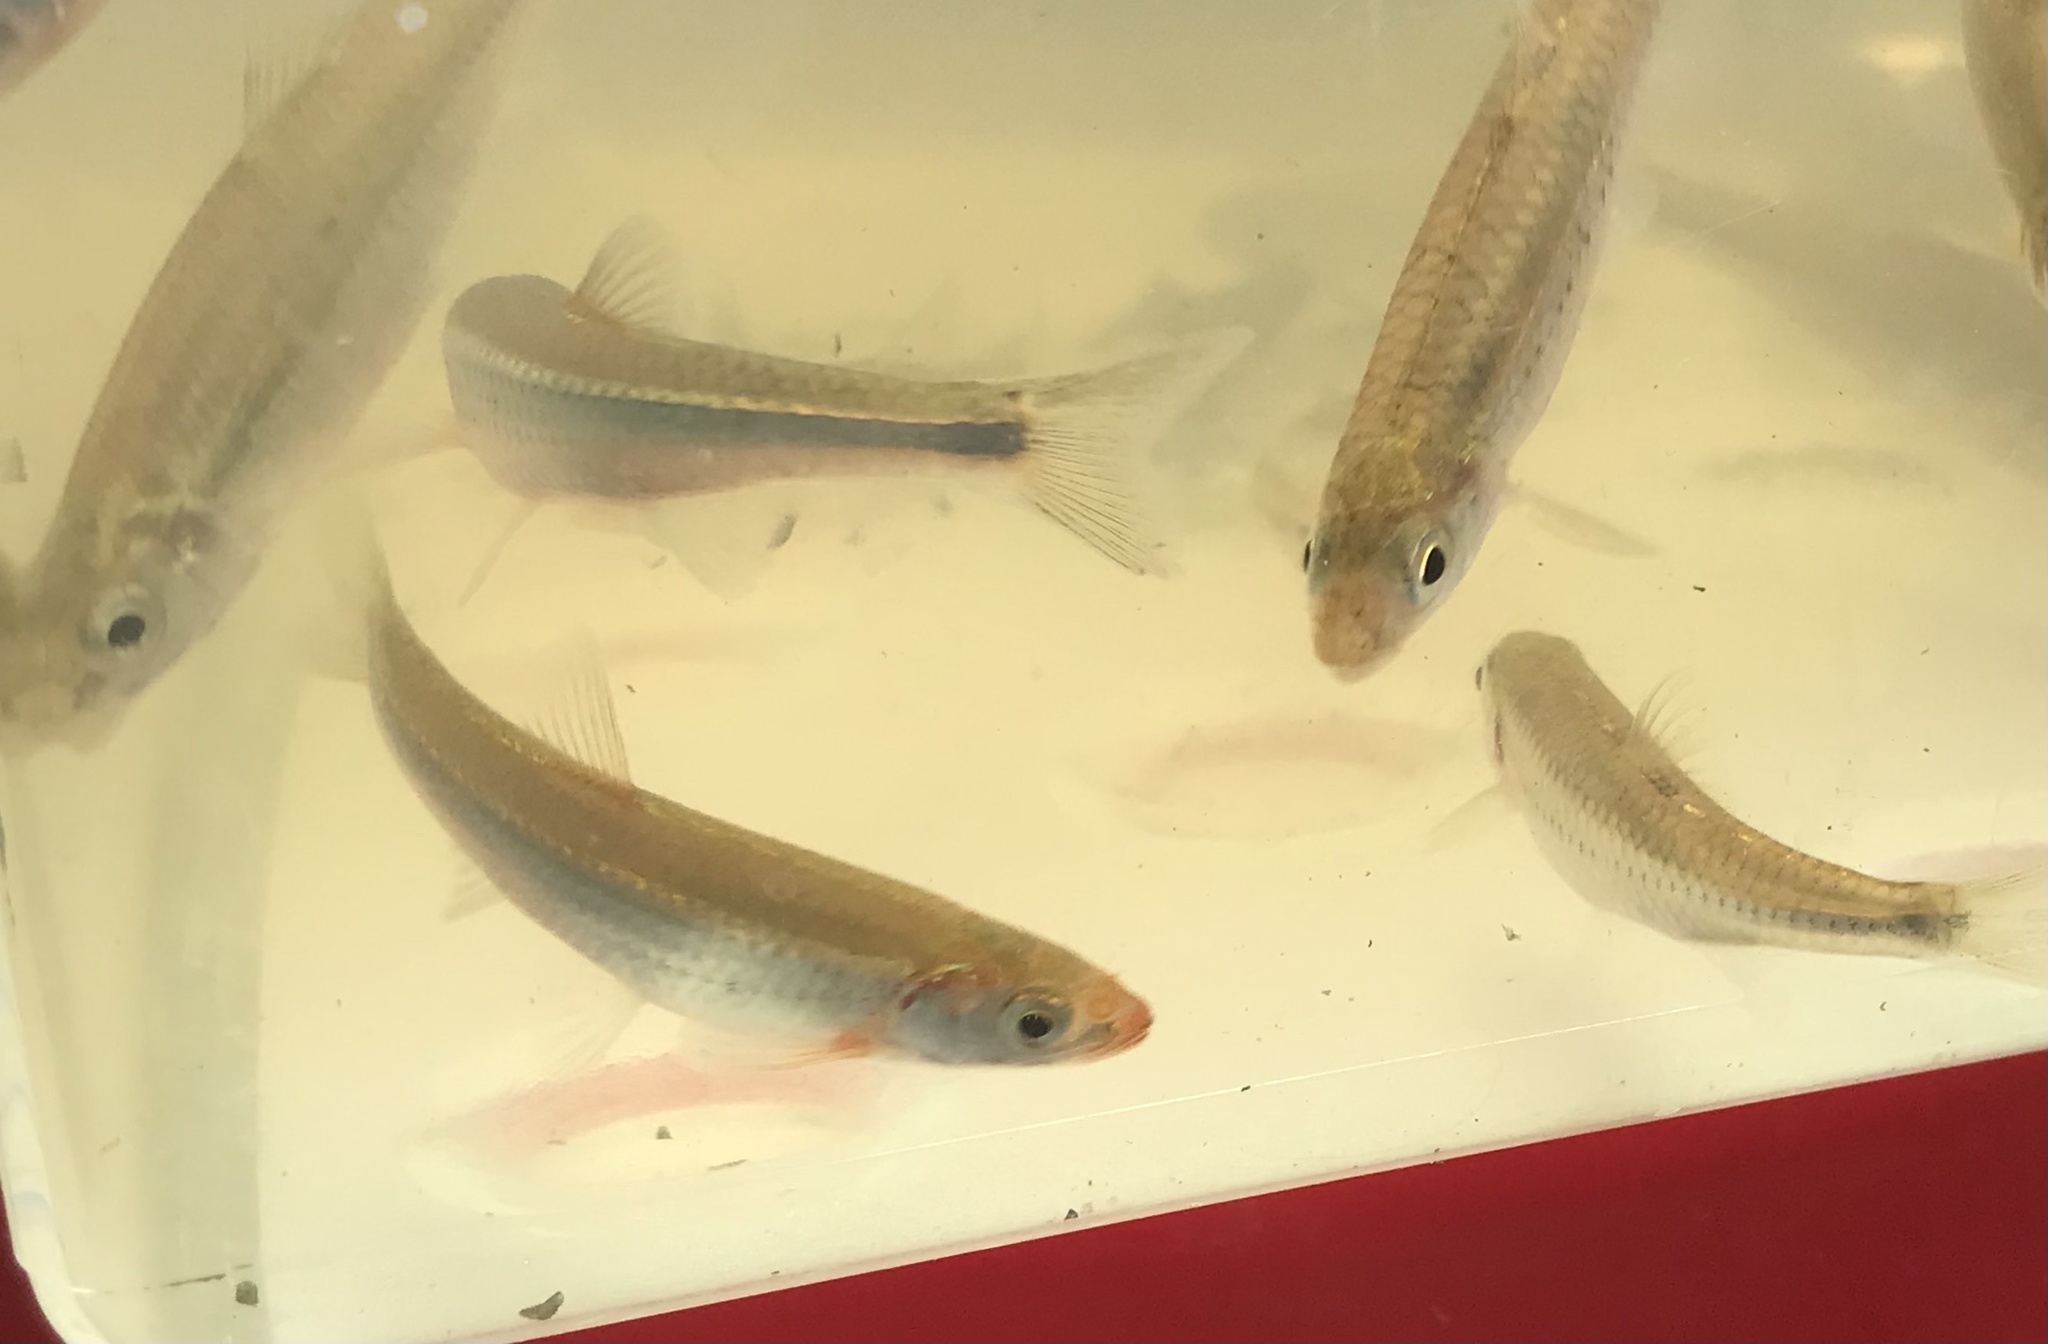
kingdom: Animalia
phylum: Chordata
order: Cypriniformes
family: Cyprinidae
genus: Notropis
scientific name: Notropis rubellus
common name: Rosyface shiner
